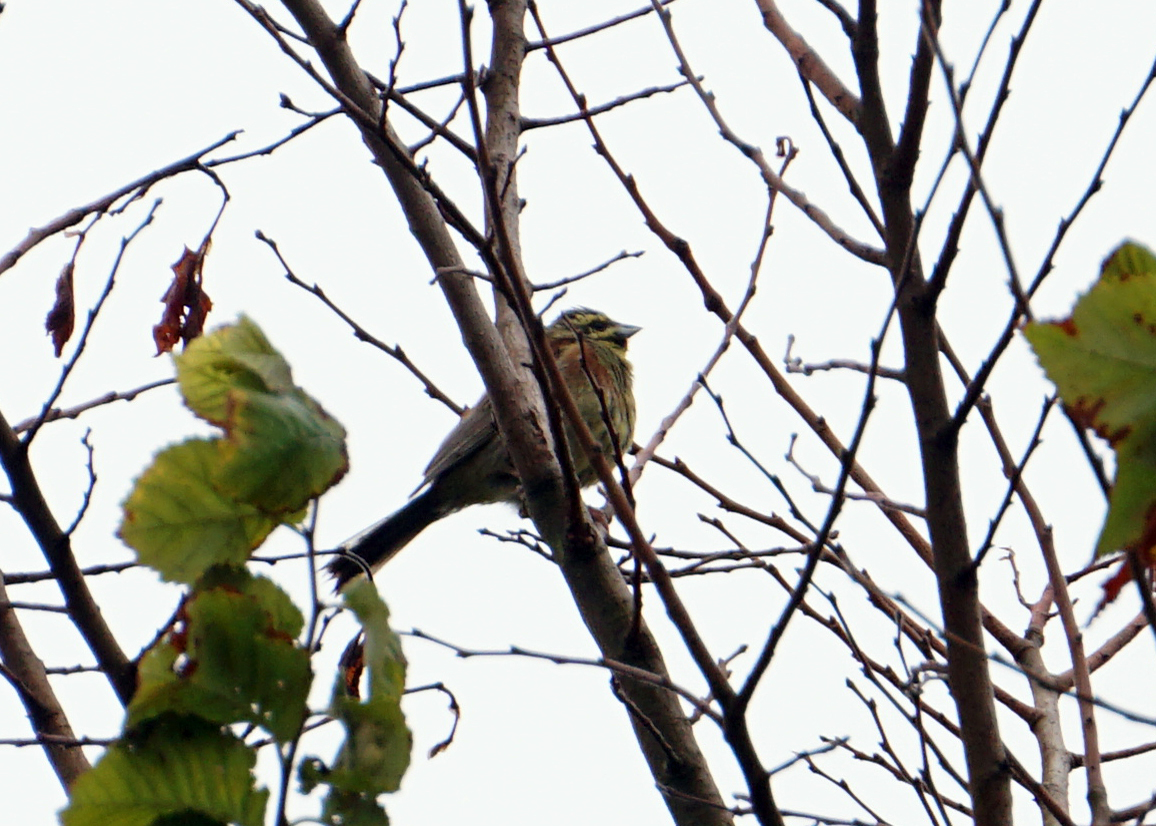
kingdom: Animalia
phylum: Chordata
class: Aves
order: Passeriformes
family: Emberizidae
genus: Emberiza
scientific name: Emberiza cirlus
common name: Cirl bunting
